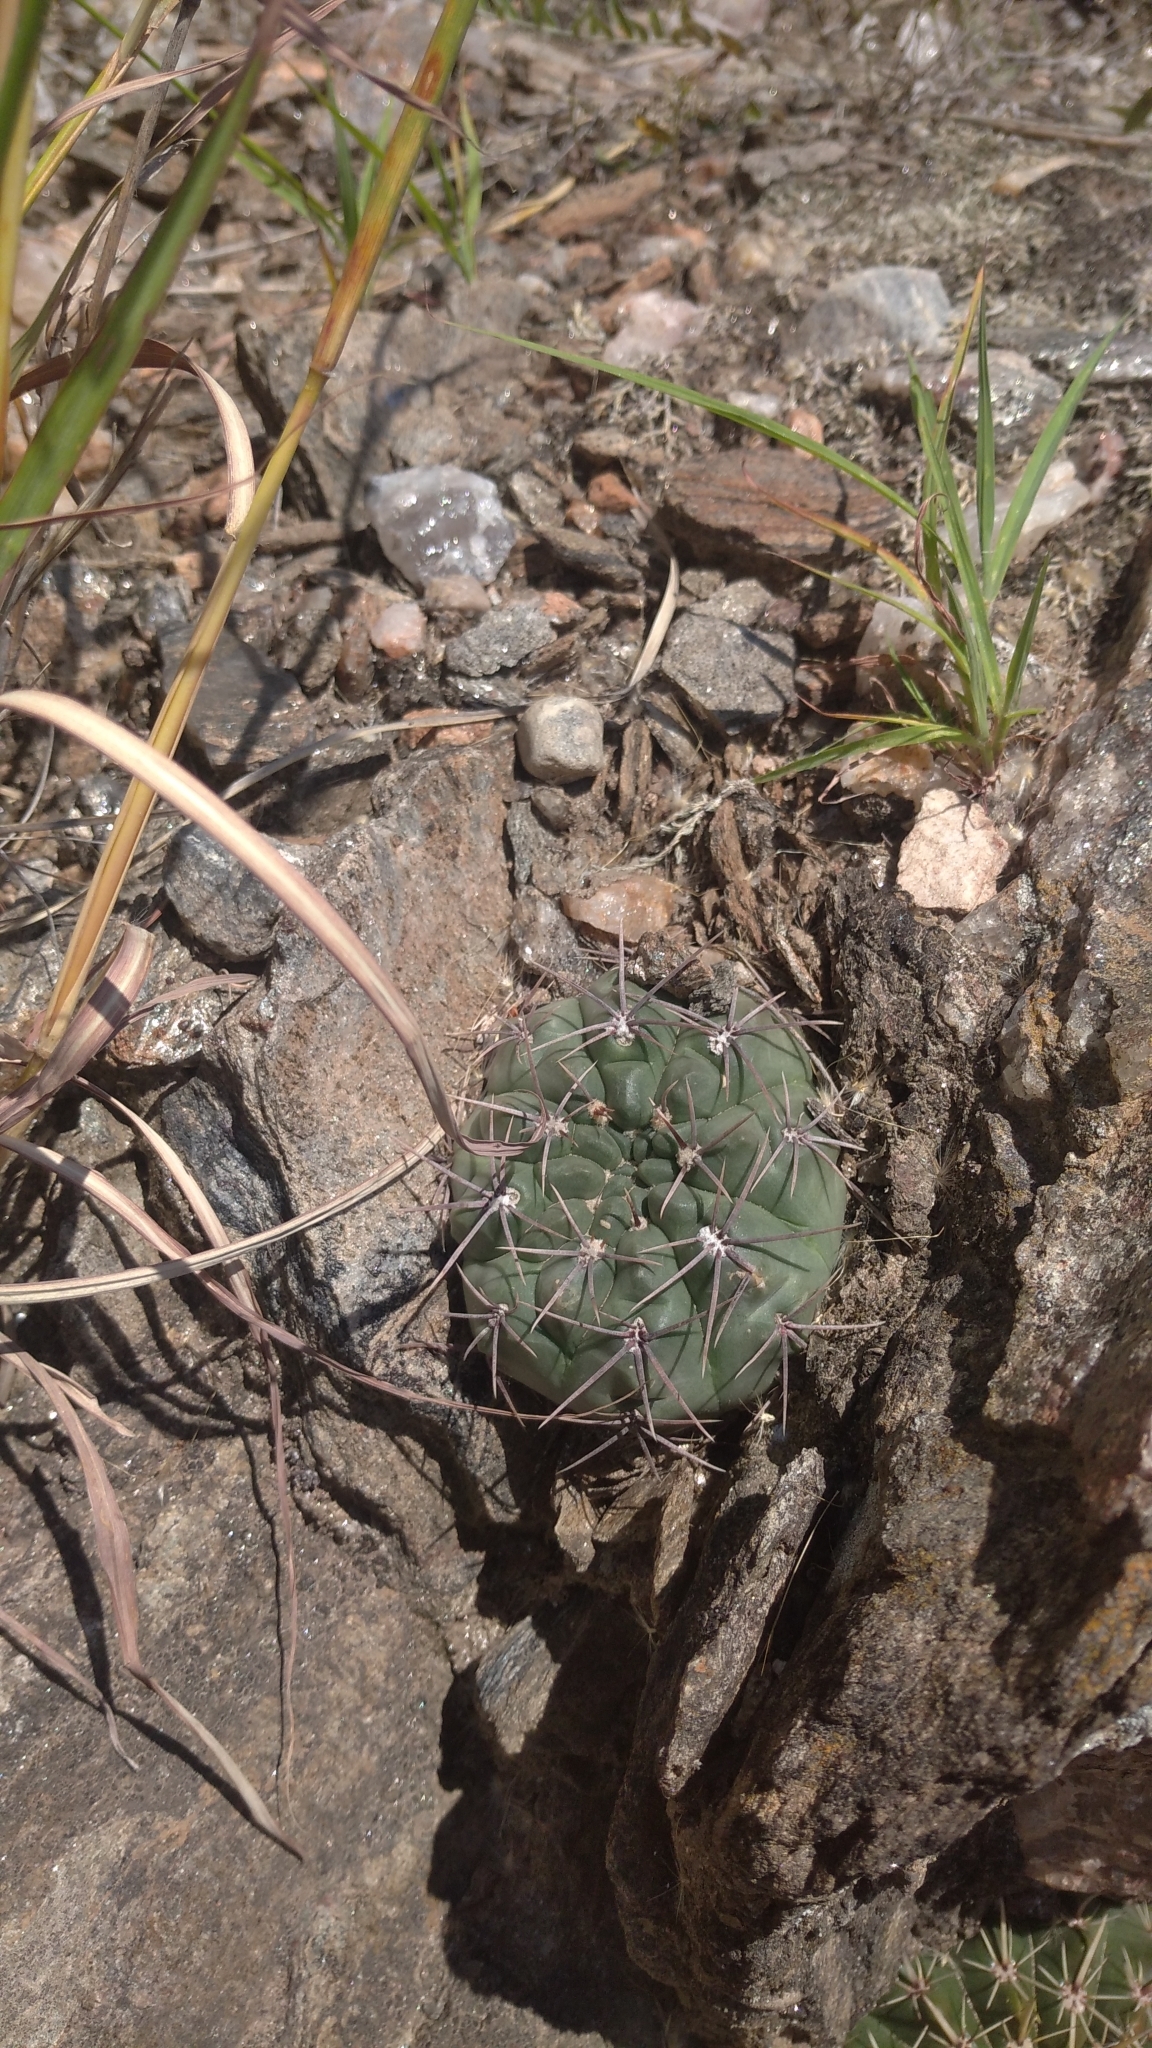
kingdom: Plantae
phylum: Tracheophyta
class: Magnoliopsida
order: Caryophyllales
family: Cactaceae
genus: Gymnocalycium
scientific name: Gymnocalycium capillaense
